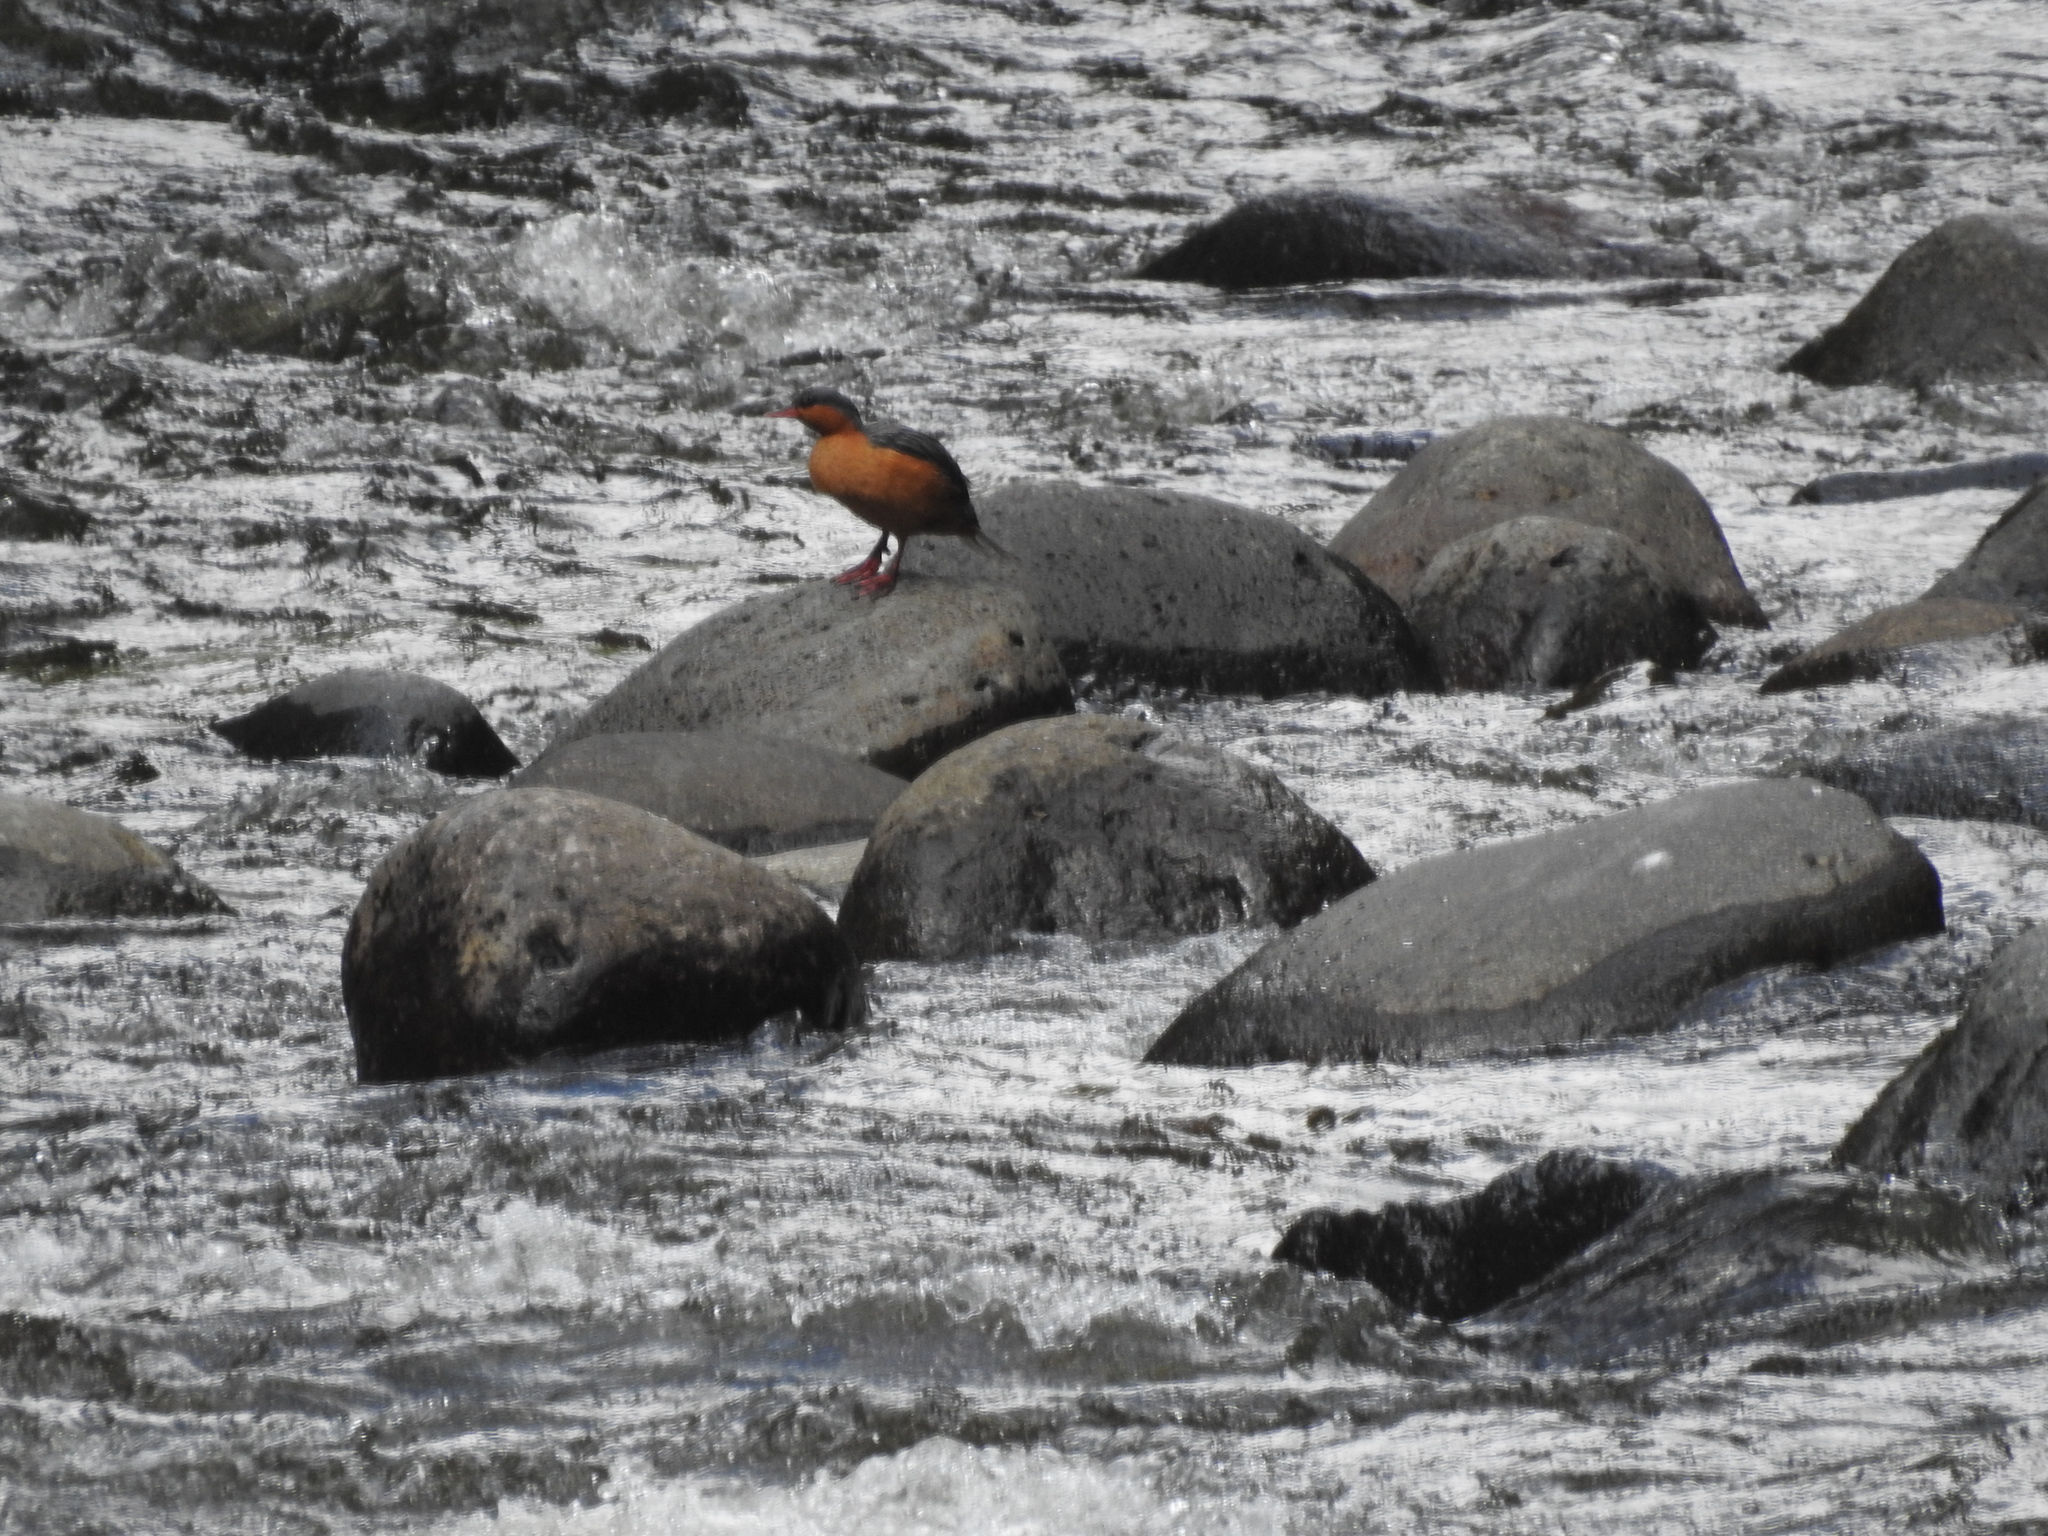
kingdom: Animalia
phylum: Chordata
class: Aves
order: Anseriformes
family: Anatidae
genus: Merganetta
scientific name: Merganetta armata
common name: Torrent duck
